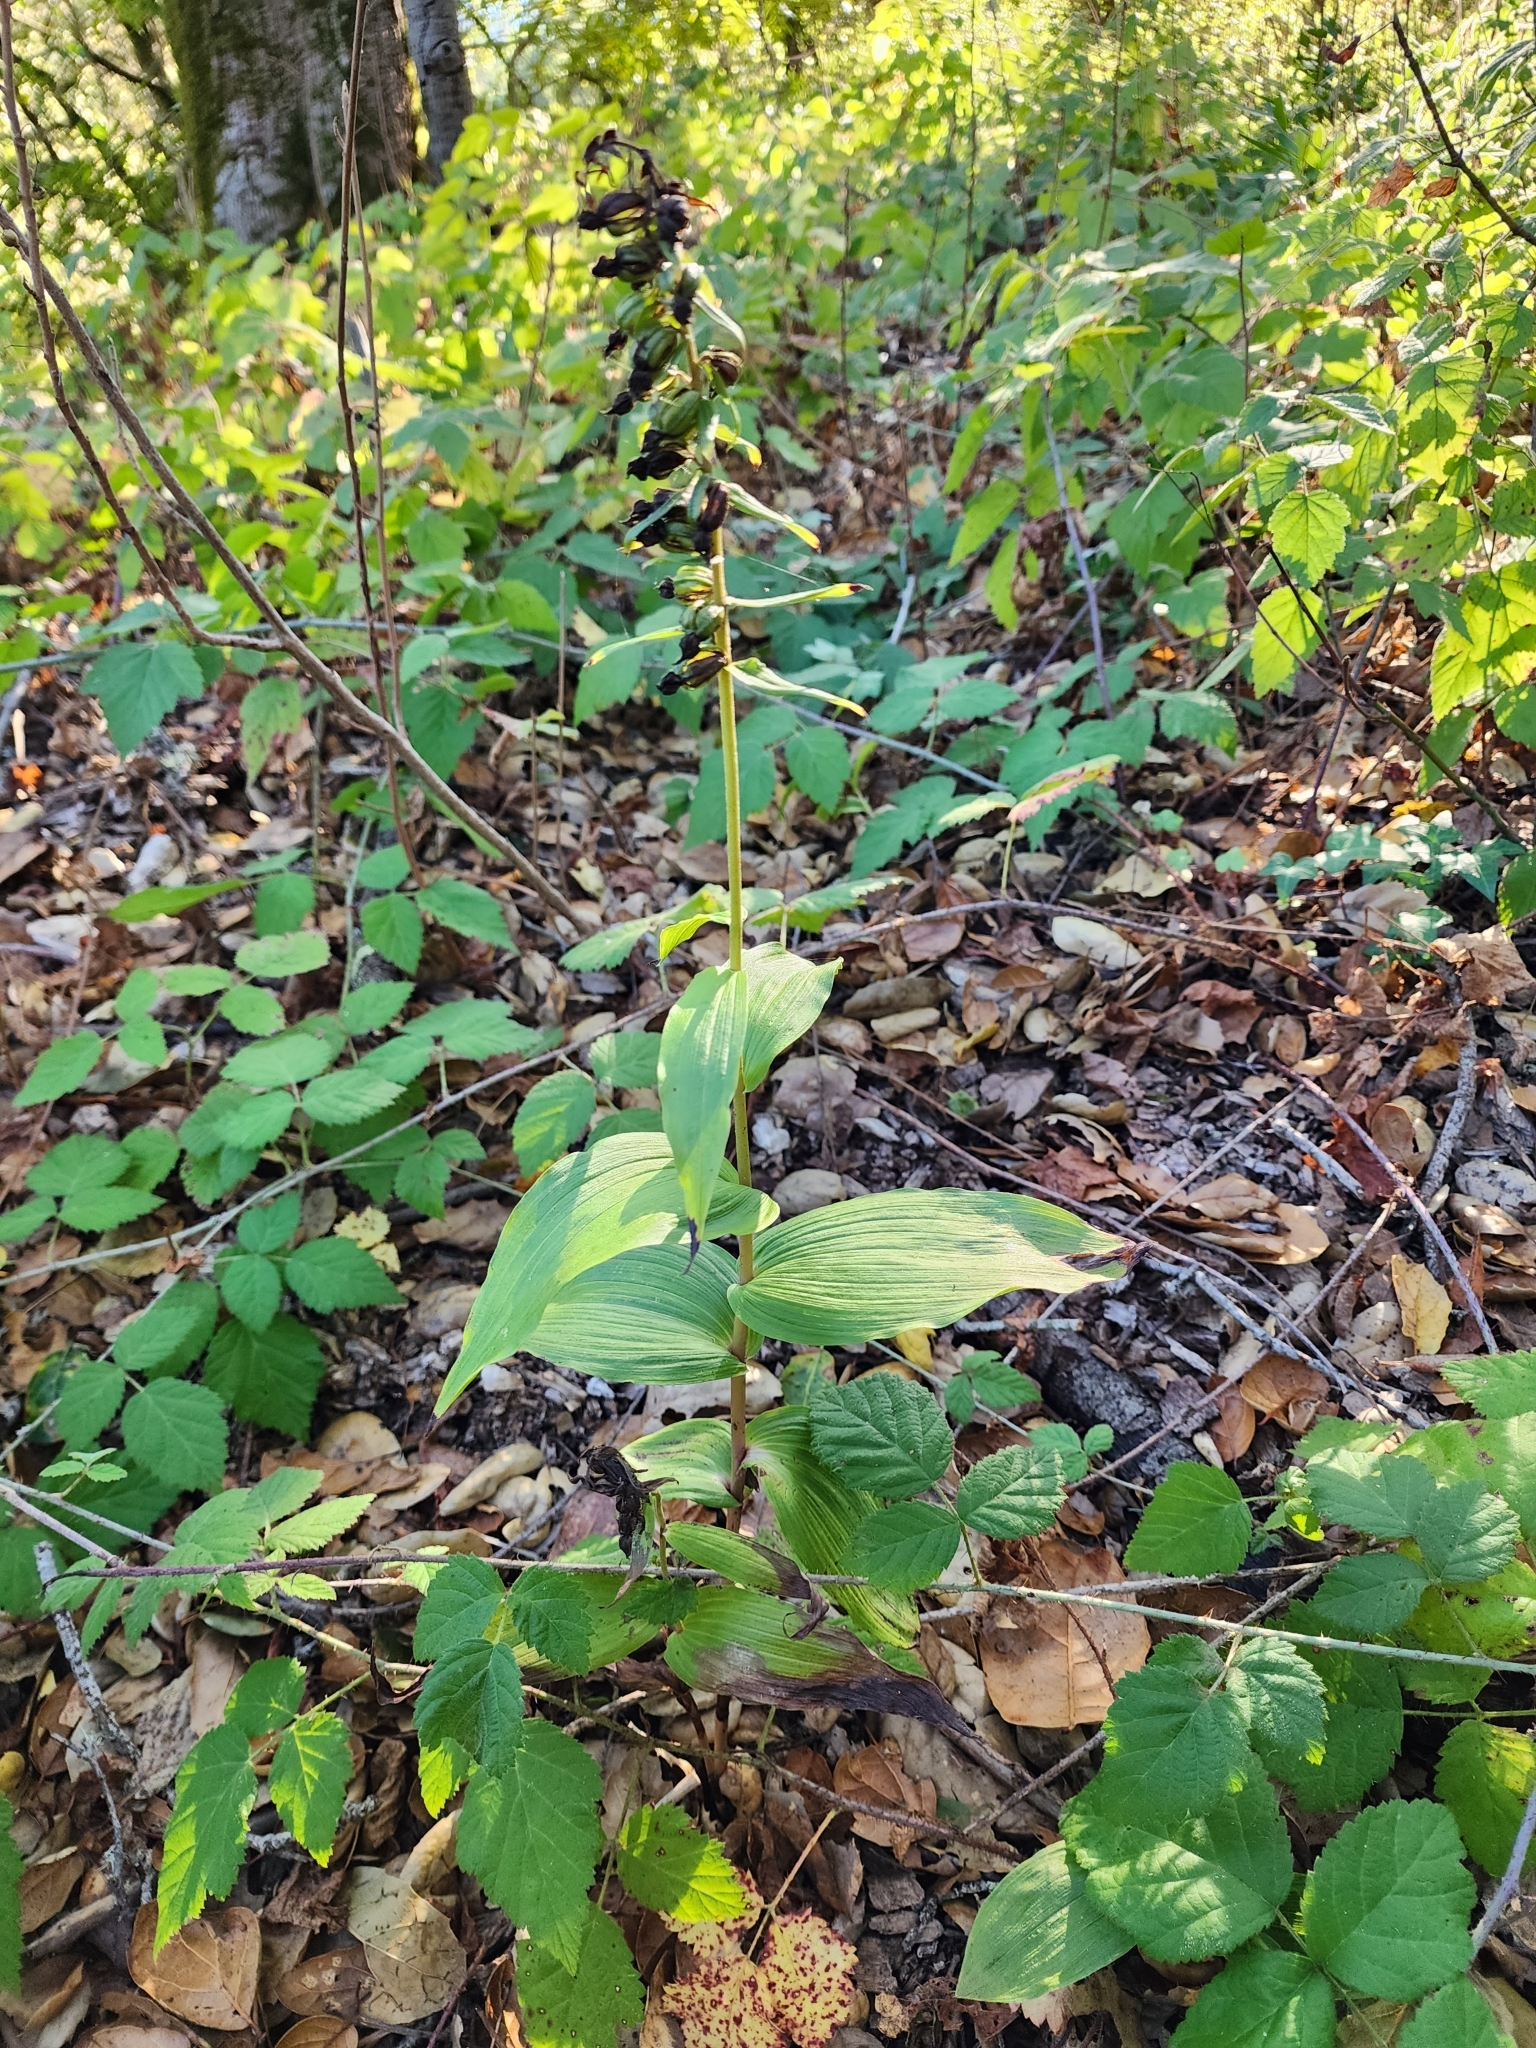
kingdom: Plantae
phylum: Tracheophyta
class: Liliopsida
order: Asparagales
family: Orchidaceae
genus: Epipactis
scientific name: Epipactis helleborine
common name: Broad-leaved helleborine
